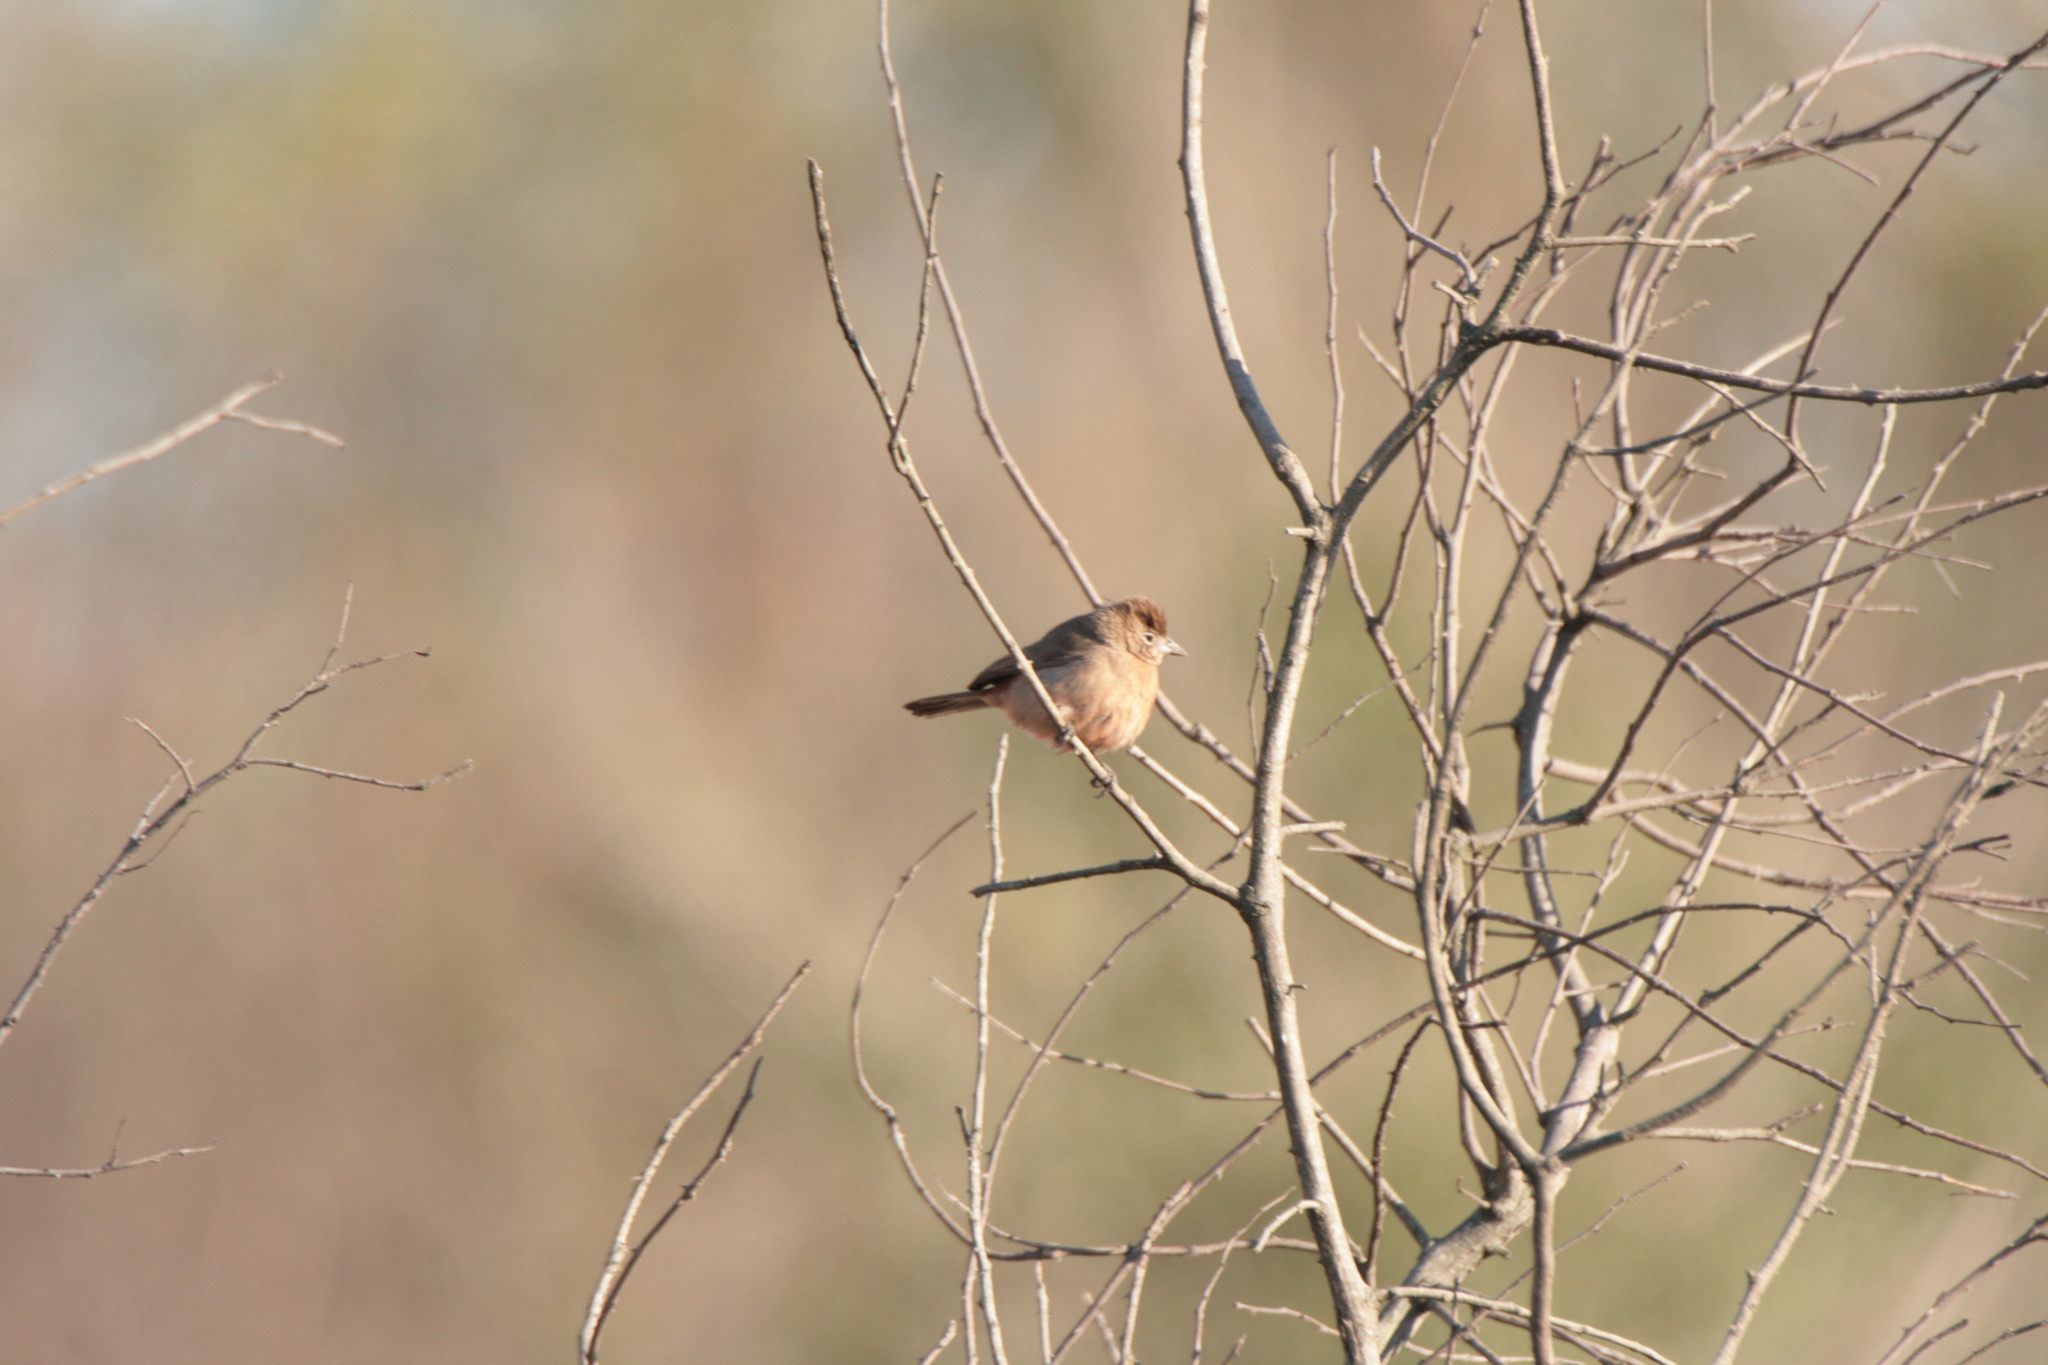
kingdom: Animalia
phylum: Chordata
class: Aves
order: Passeriformes
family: Thraupidae
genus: Coryphospingus
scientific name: Coryphospingus cucullatus
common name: Red pileated finch
